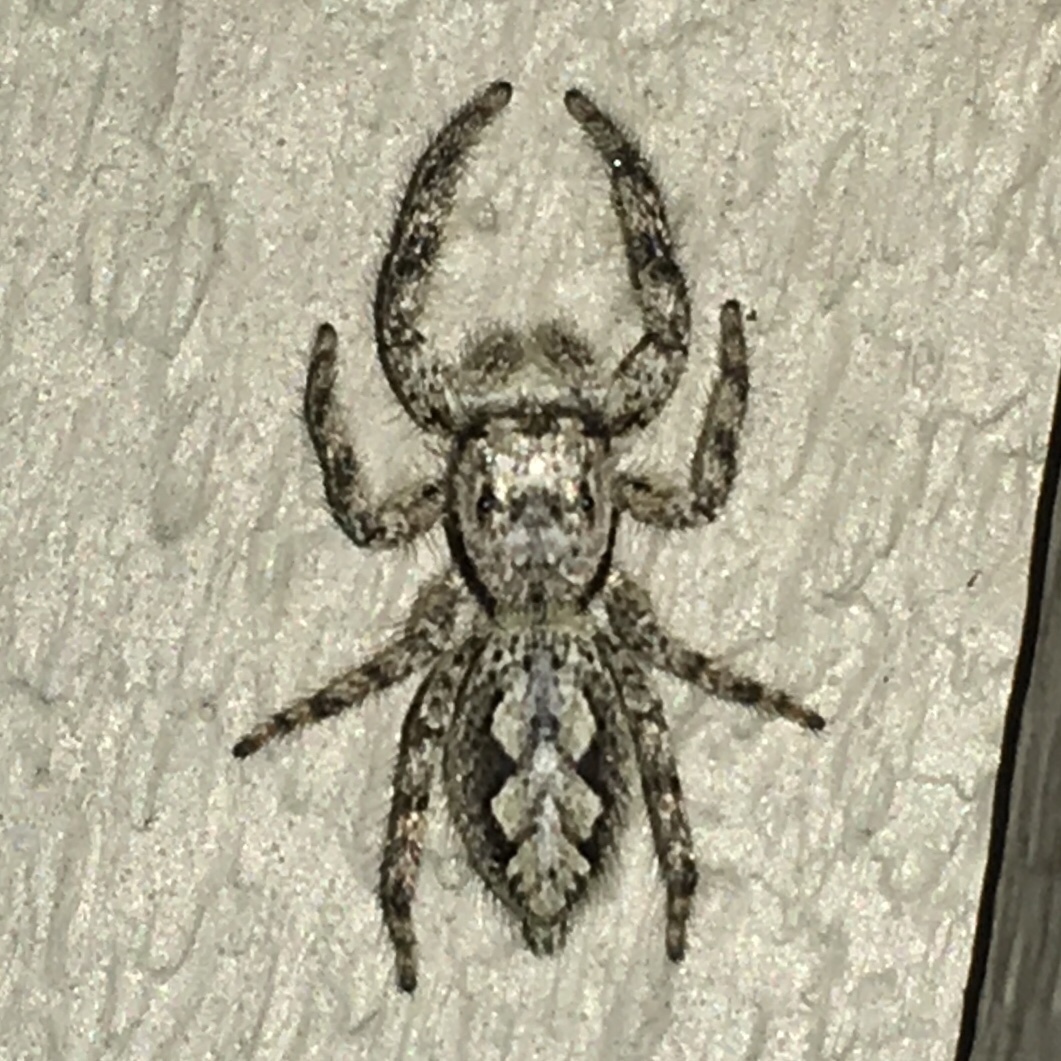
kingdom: Animalia
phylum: Arthropoda
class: Arachnida
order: Araneae
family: Salticidae
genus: Platycryptus
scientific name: Platycryptus undatus
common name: Tan jumping spider
